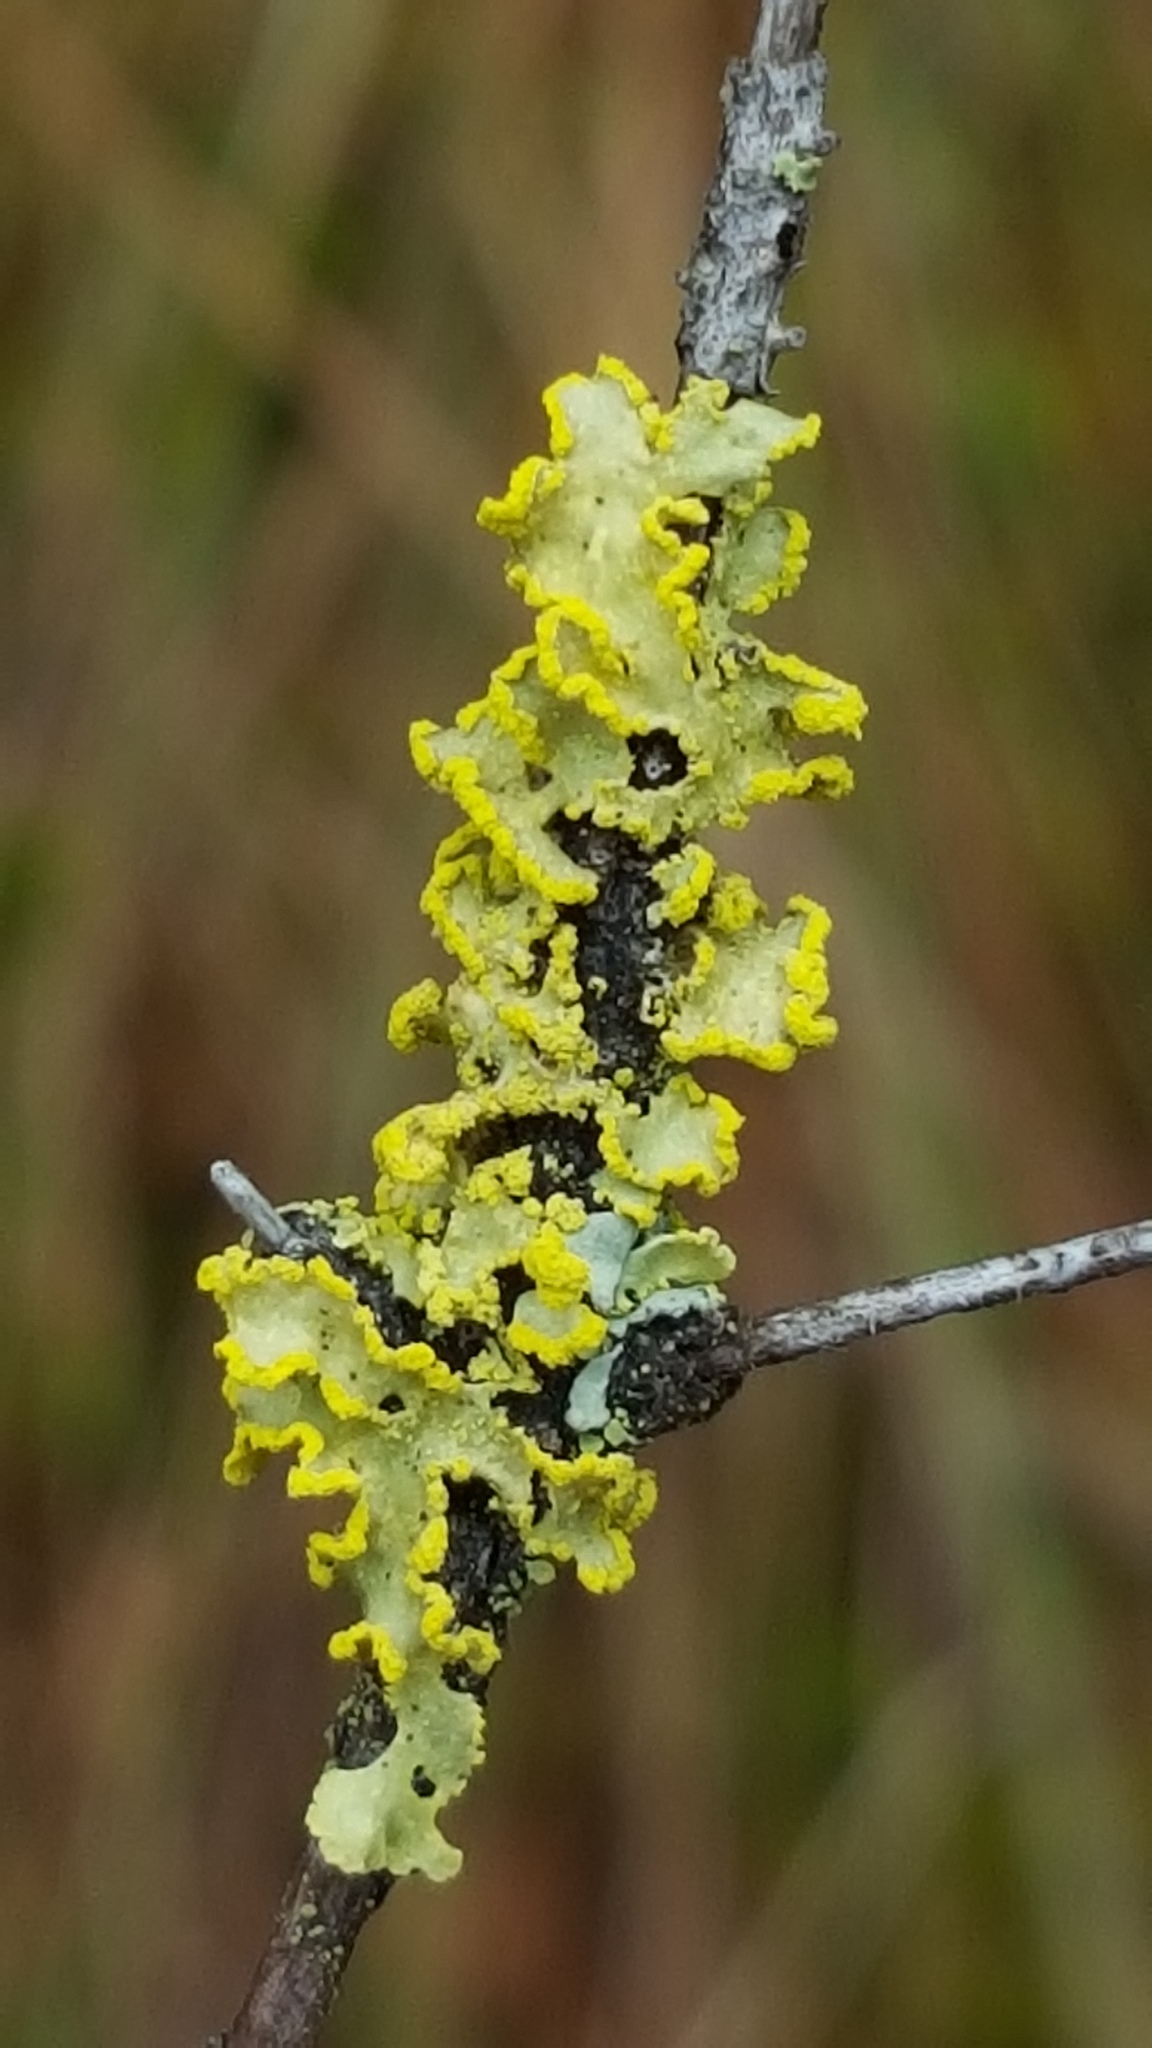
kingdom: Fungi
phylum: Ascomycota
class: Lecanoromycetes
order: Lecanorales
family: Parmeliaceae
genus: Vulpicida
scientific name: Vulpicida pinastri
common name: Powdered sunshine lichen
